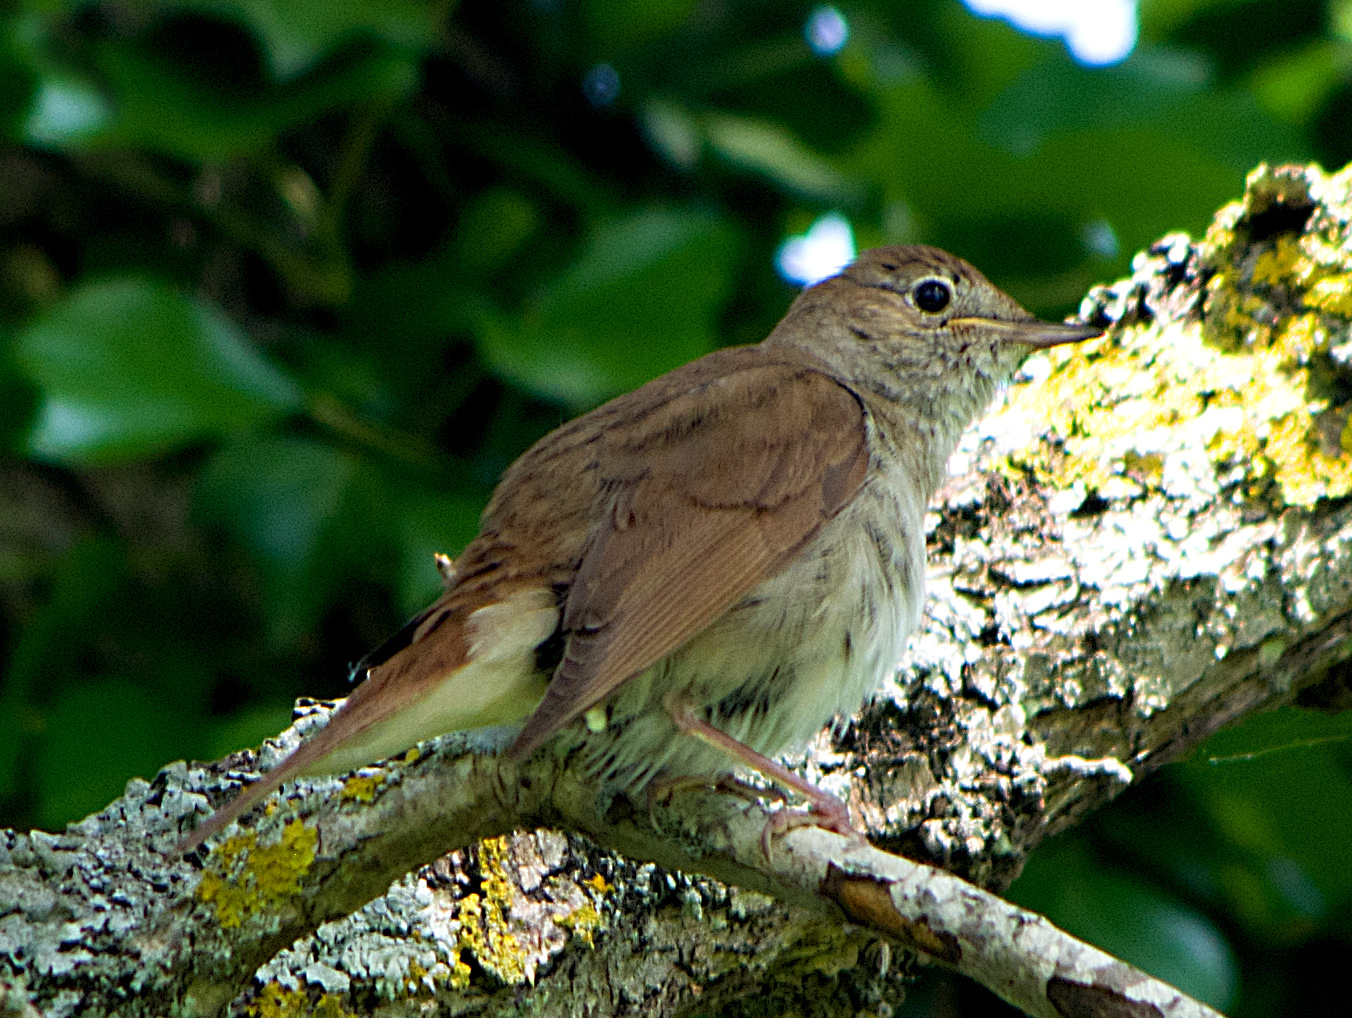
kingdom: Animalia
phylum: Chordata
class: Aves
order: Passeriformes
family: Muscicapidae
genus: Luscinia
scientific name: Luscinia megarhynchos
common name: Common nightingale
